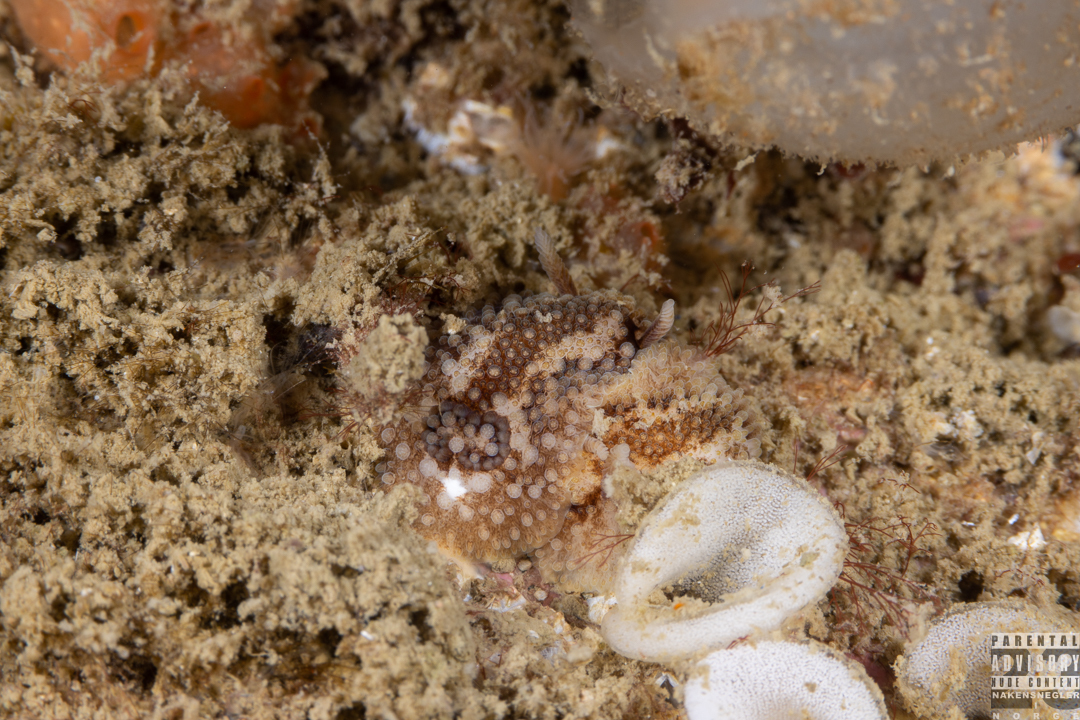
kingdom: Animalia
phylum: Mollusca
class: Gastropoda
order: Nudibranchia
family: Onchidorididae
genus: Onchidoris
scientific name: Onchidoris bilamellata
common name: Barnacle-eating onchidoris
